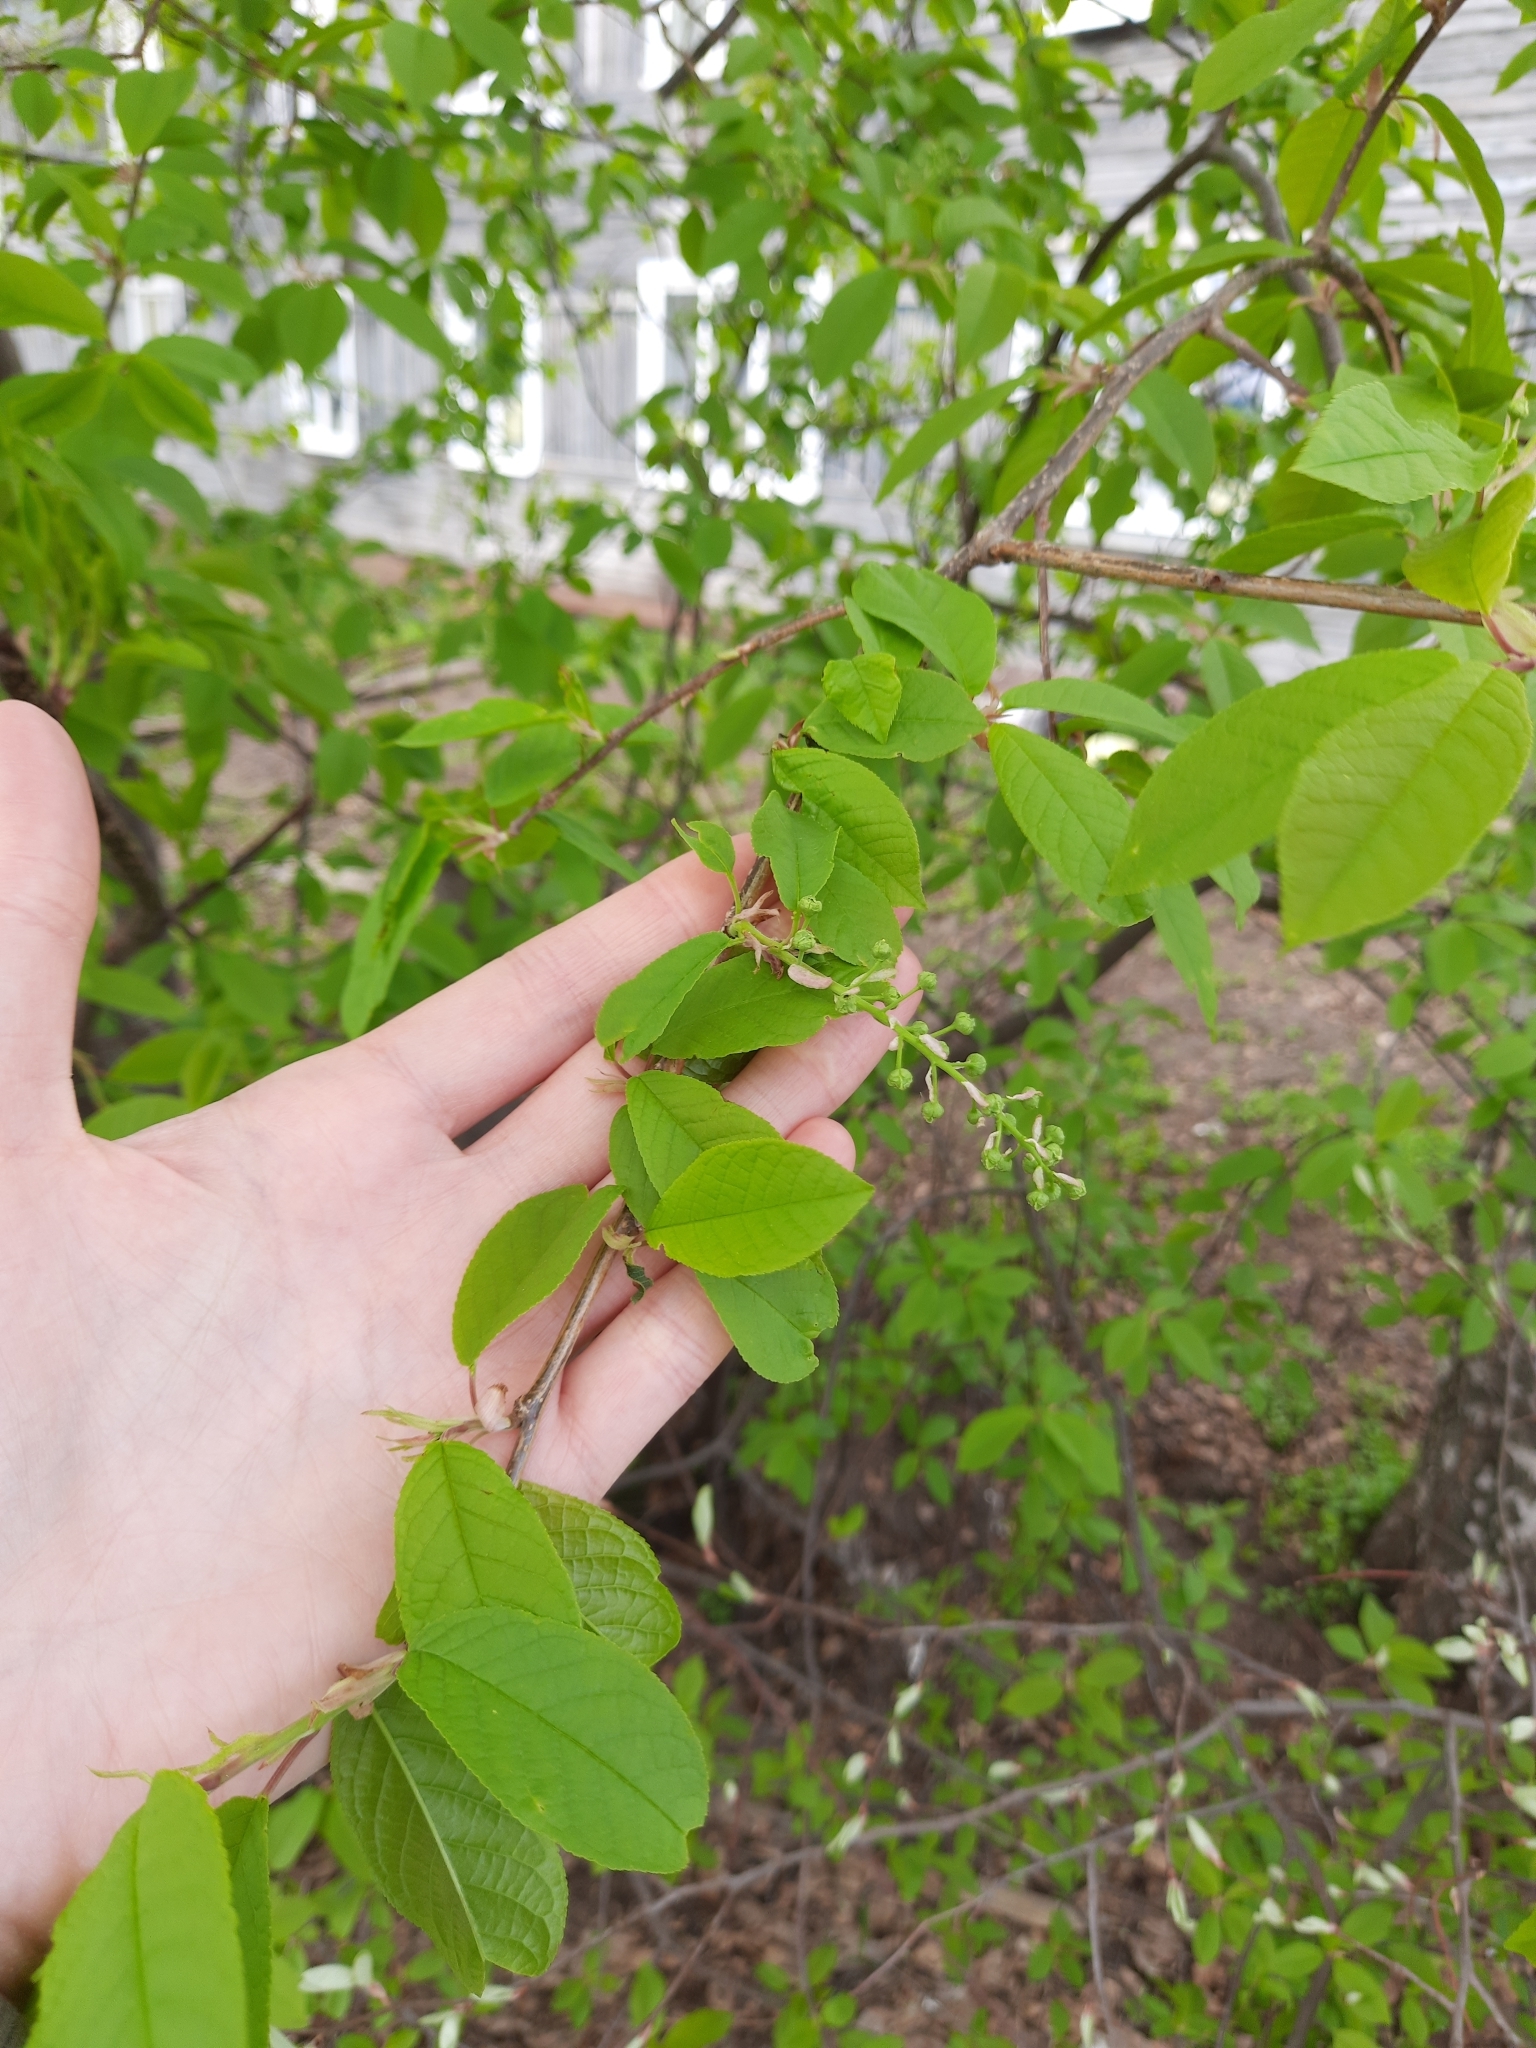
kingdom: Plantae
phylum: Tracheophyta
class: Magnoliopsida
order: Rosales
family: Rosaceae
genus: Prunus
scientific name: Prunus padus
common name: Bird cherry
